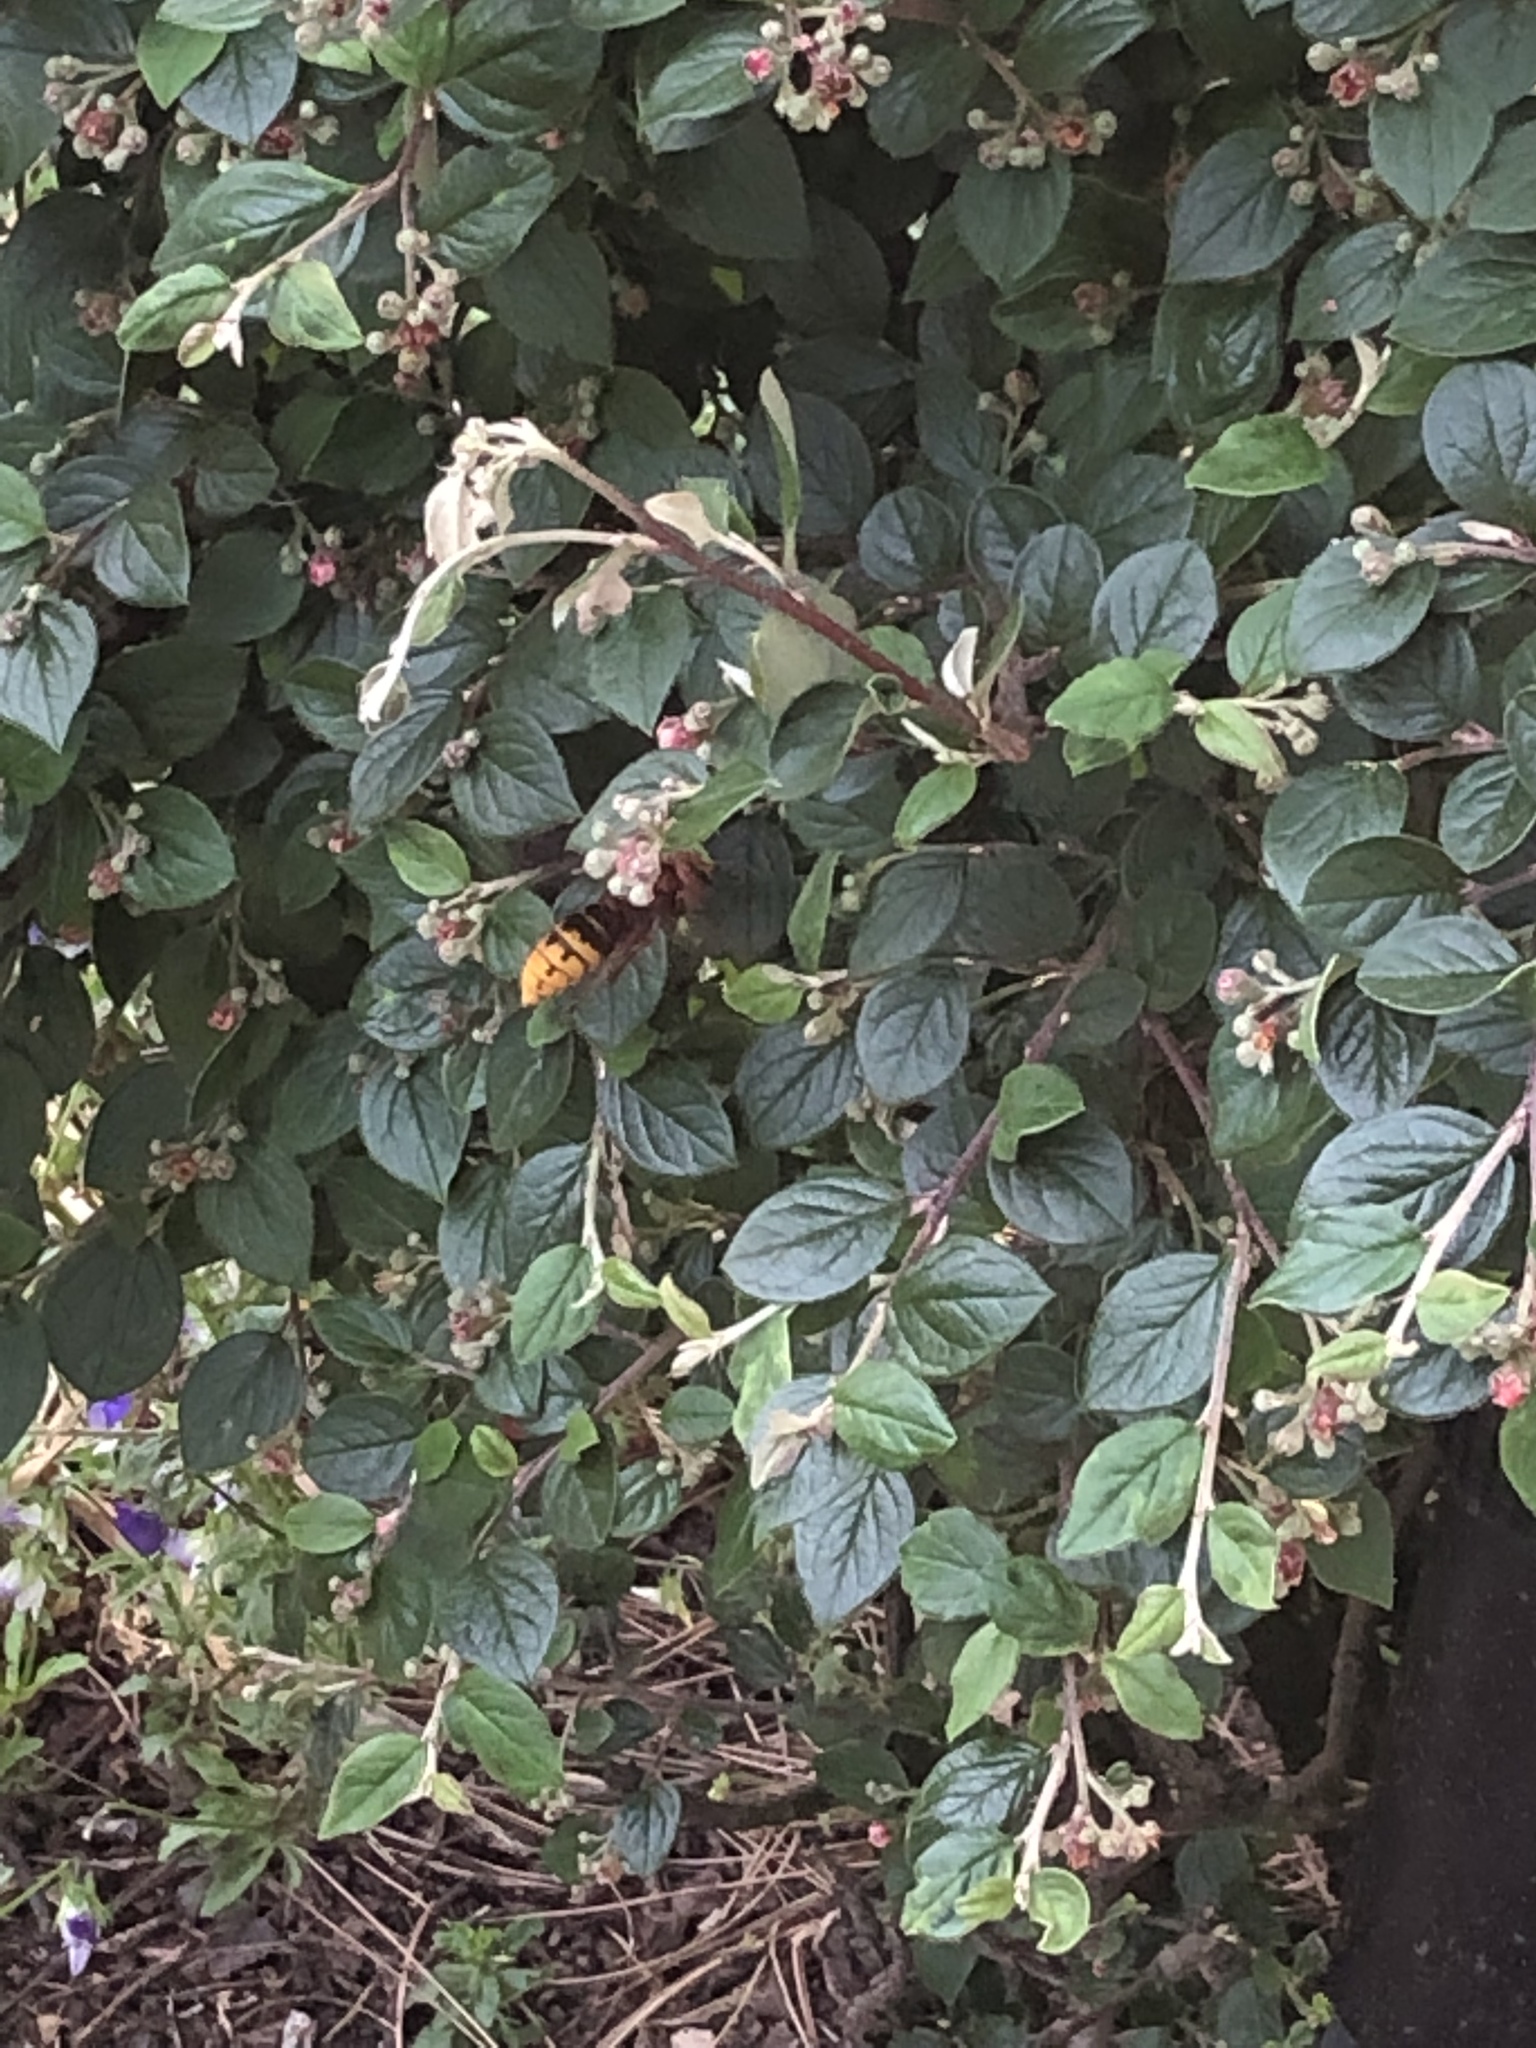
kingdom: Animalia
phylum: Arthropoda
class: Insecta
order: Hymenoptera
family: Vespidae
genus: Vespa
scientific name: Vespa crabro
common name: Hornet
